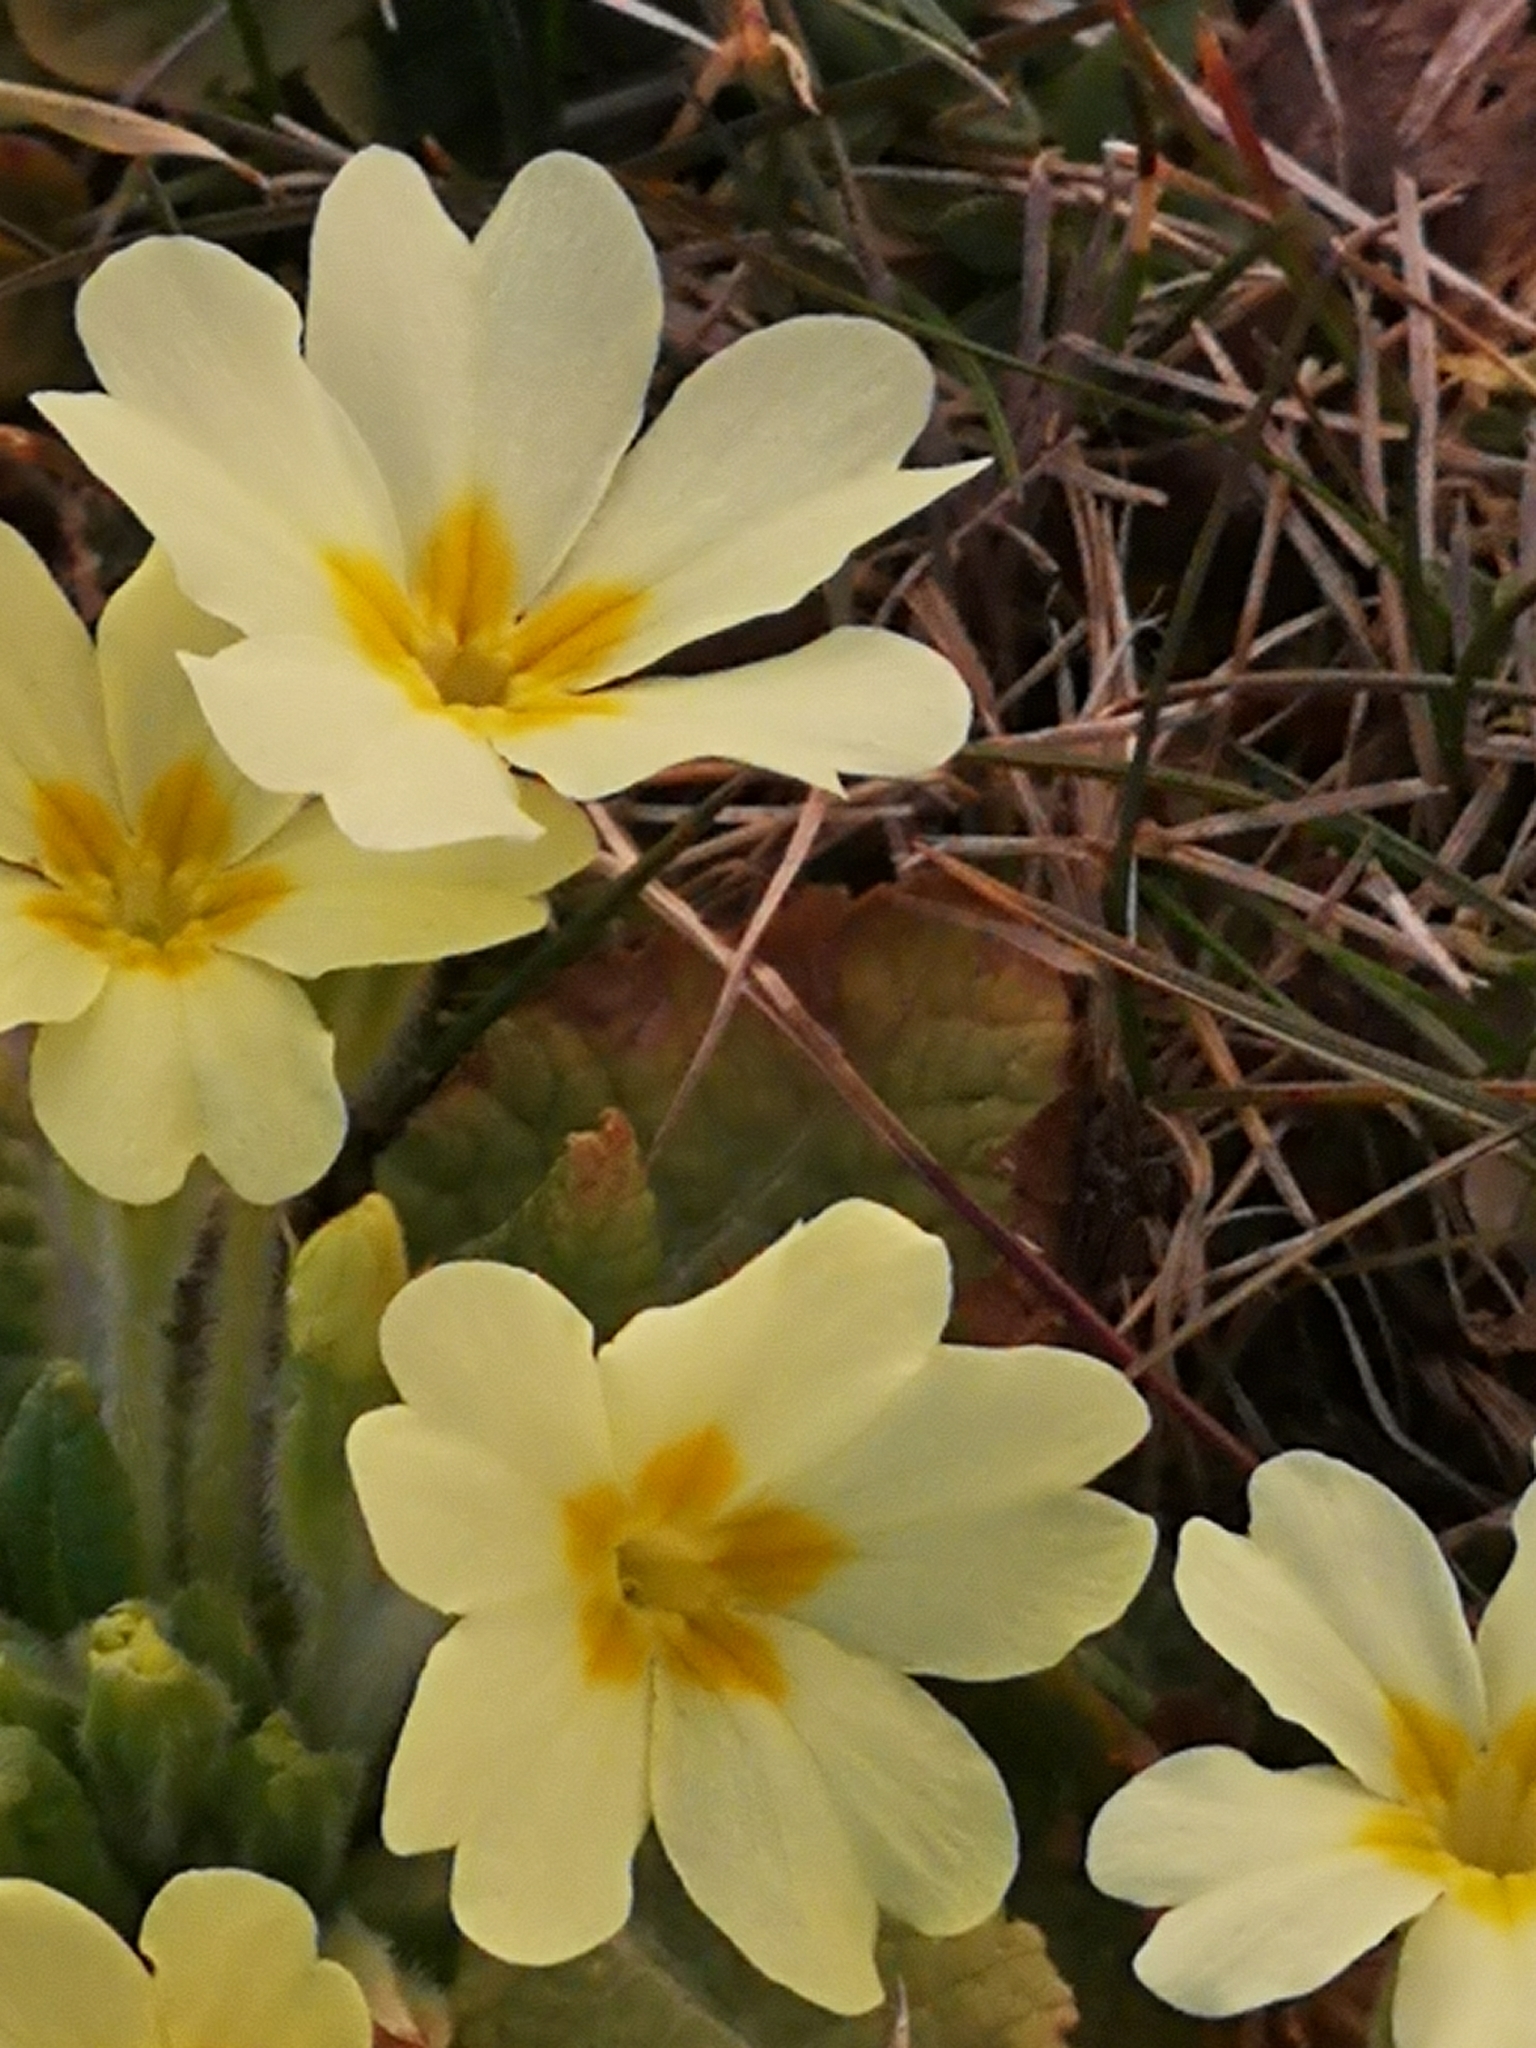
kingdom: Plantae
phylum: Tracheophyta
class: Magnoliopsida
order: Ericales
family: Primulaceae
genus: Primula
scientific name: Primula vulgaris
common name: Primrose
